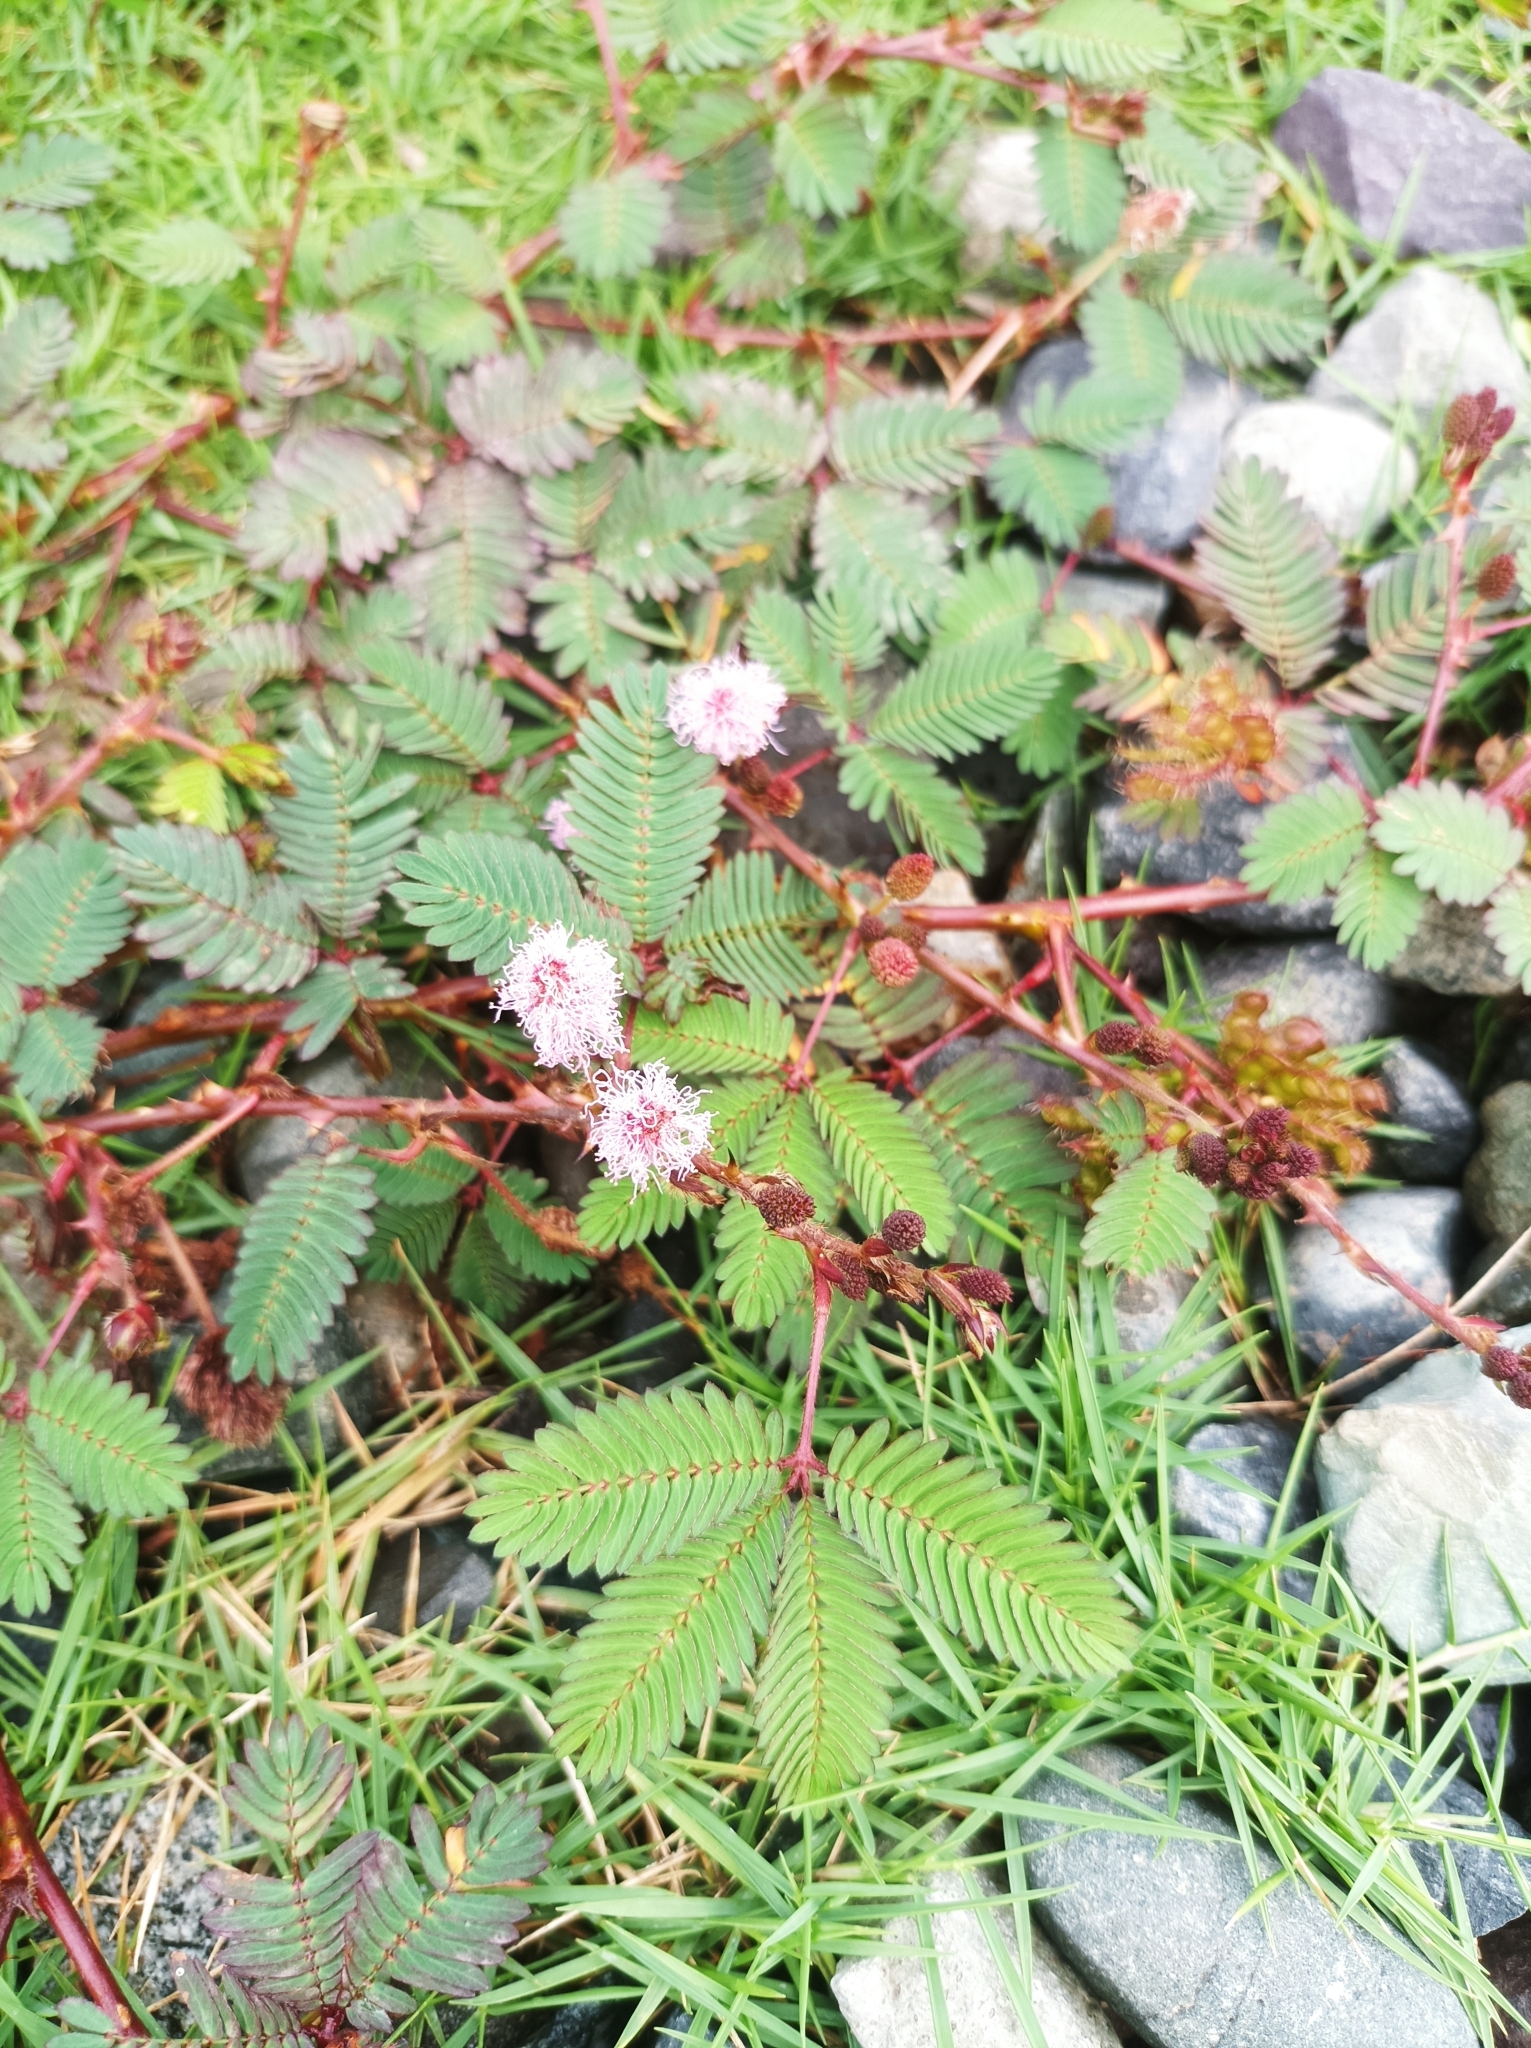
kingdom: Plantae
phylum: Tracheophyta
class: Magnoliopsida
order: Fabales
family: Fabaceae
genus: Mimosa
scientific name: Mimosa pudica
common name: Sensitive plant
